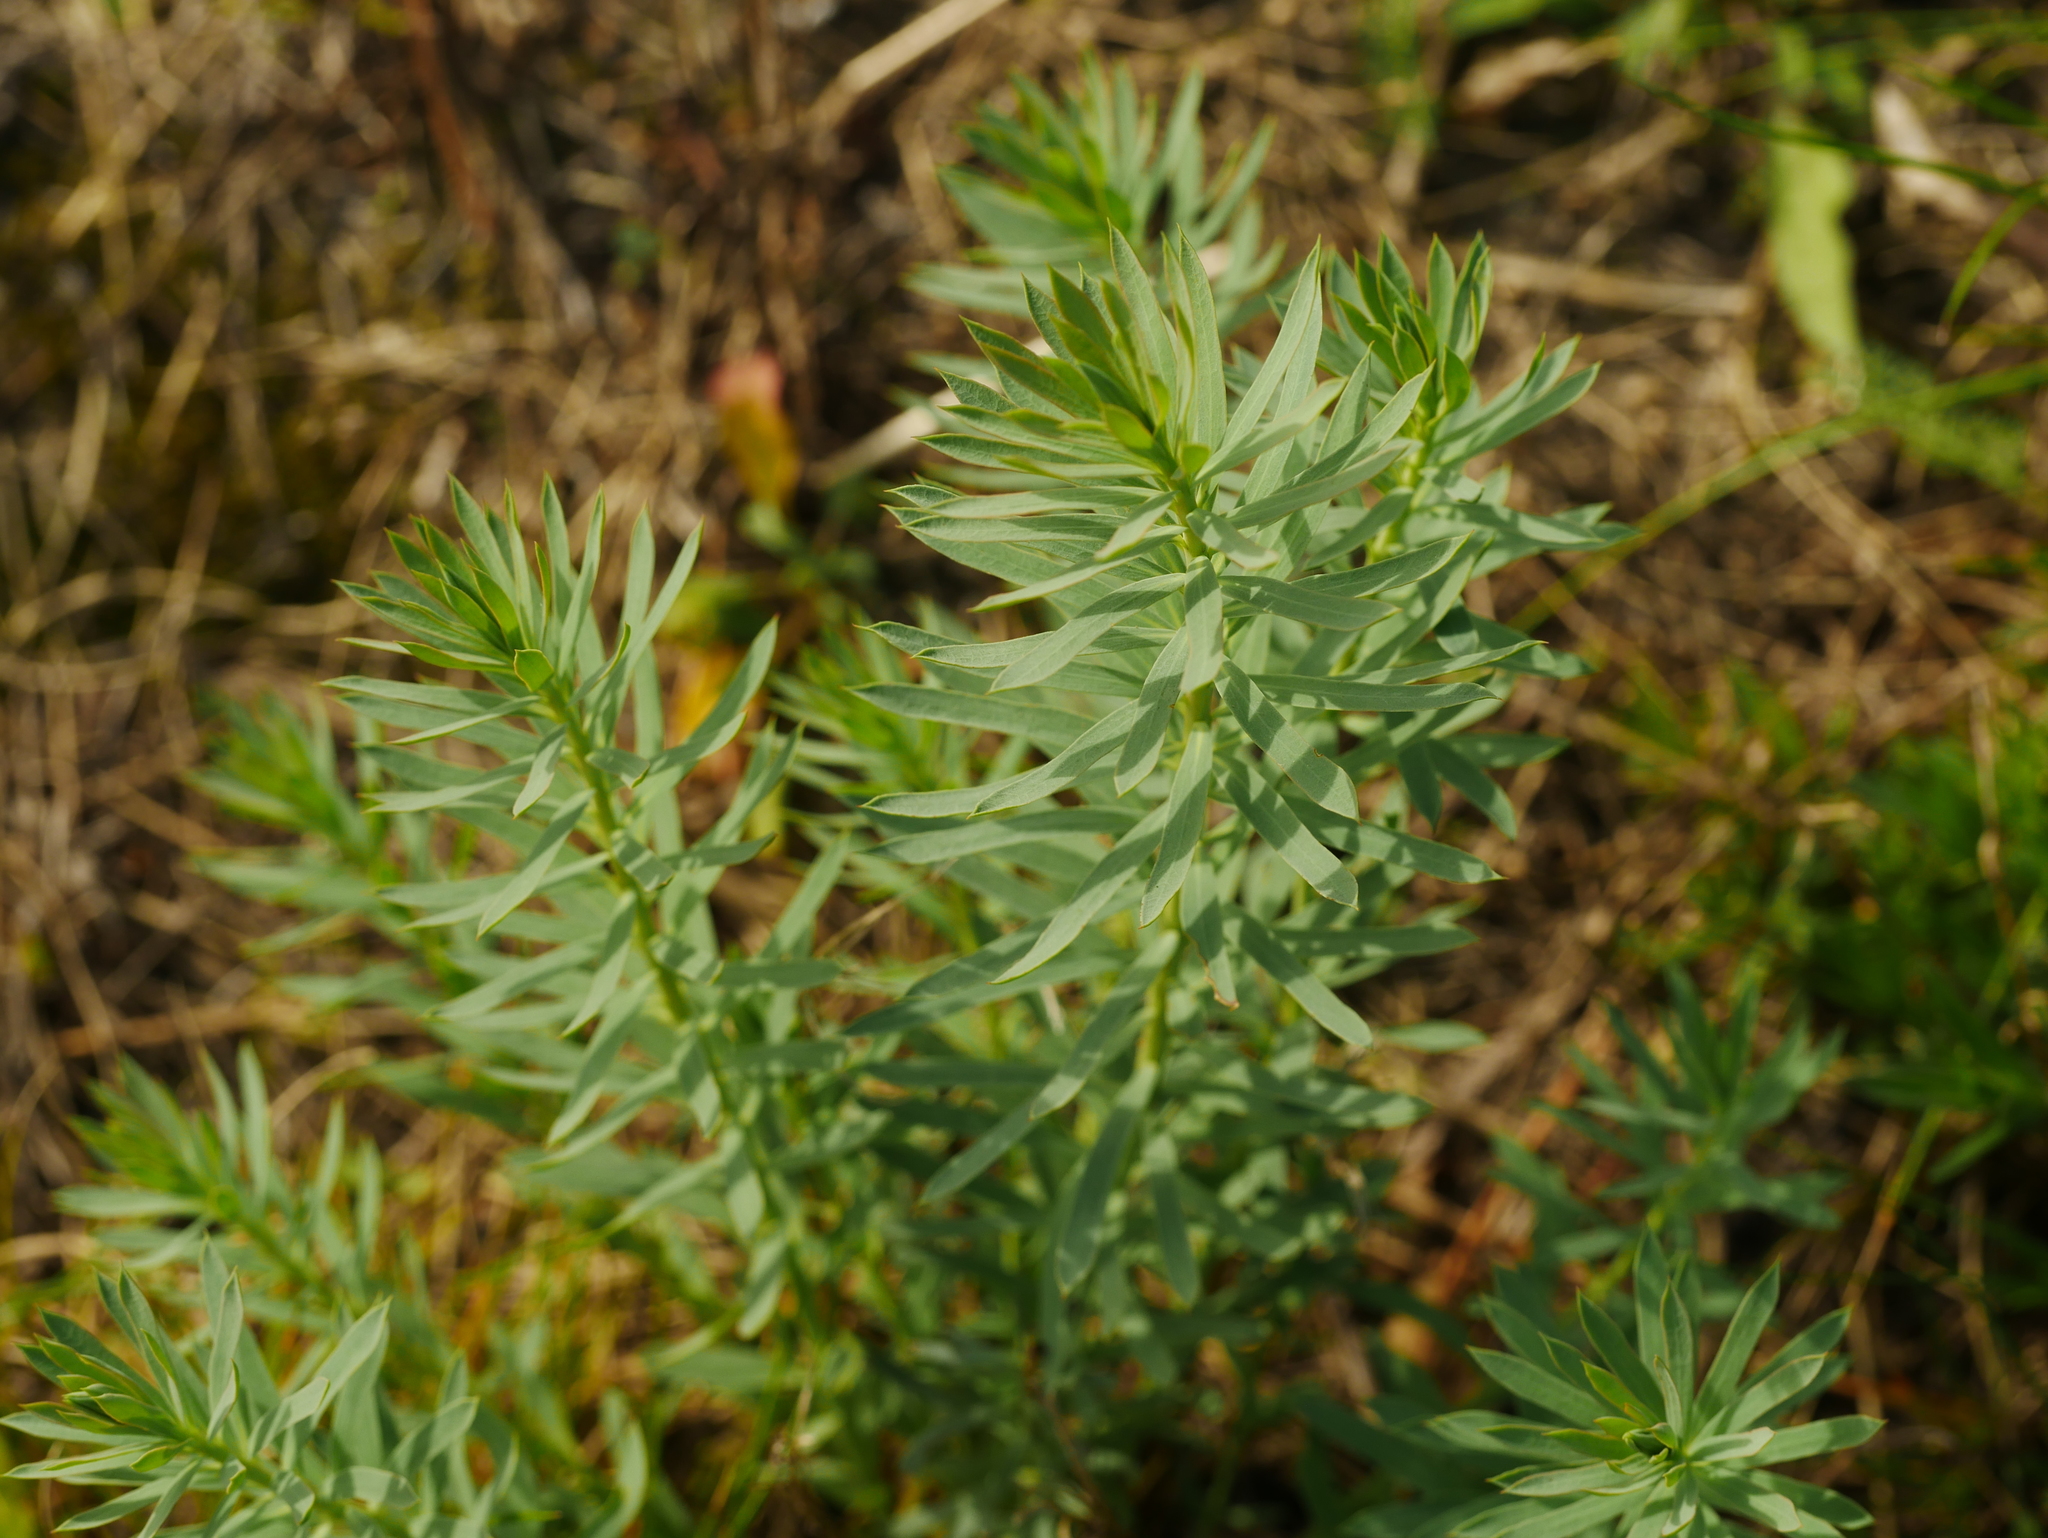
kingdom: Plantae
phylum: Tracheophyta
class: Magnoliopsida
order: Malpighiales
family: Euphorbiaceae
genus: Euphorbia
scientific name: Euphorbia cyparissias
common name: Cypress spurge
